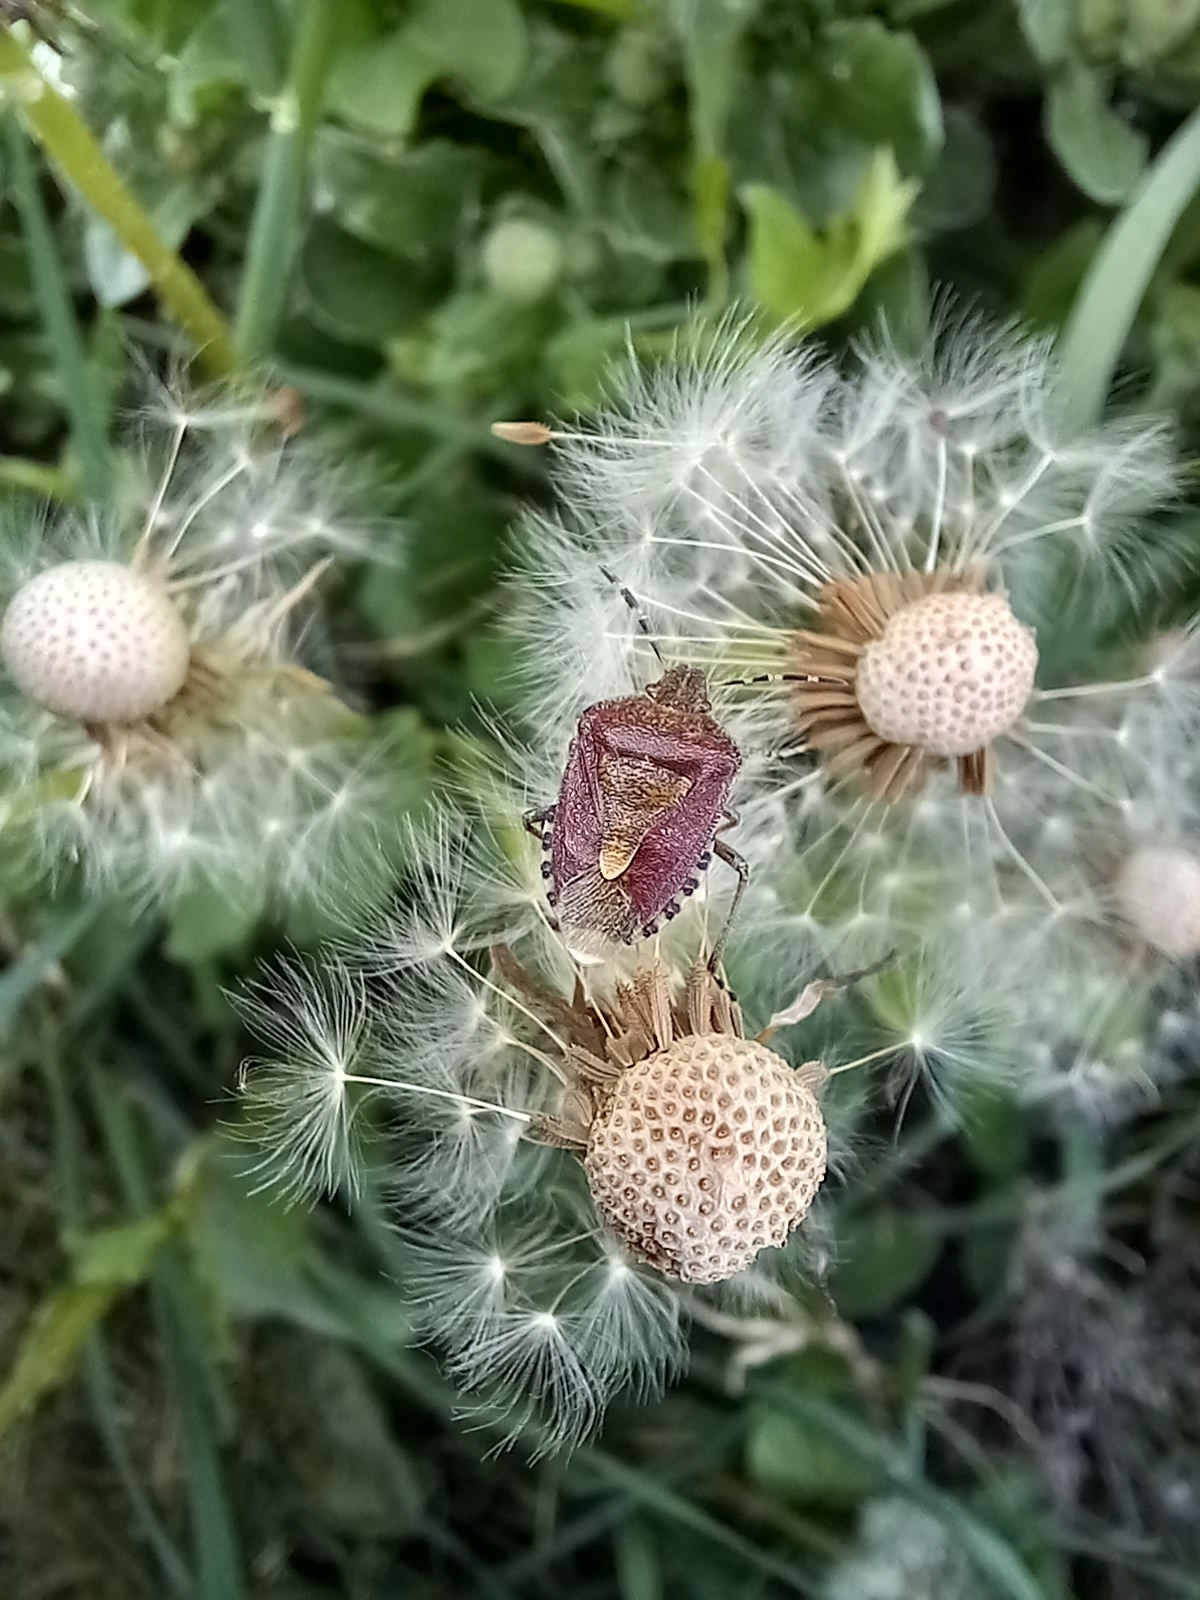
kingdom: Animalia
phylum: Arthropoda
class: Insecta
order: Hemiptera
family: Pentatomidae
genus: Dolycoris
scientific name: Dolycoris baccarum
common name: Sloe bug
